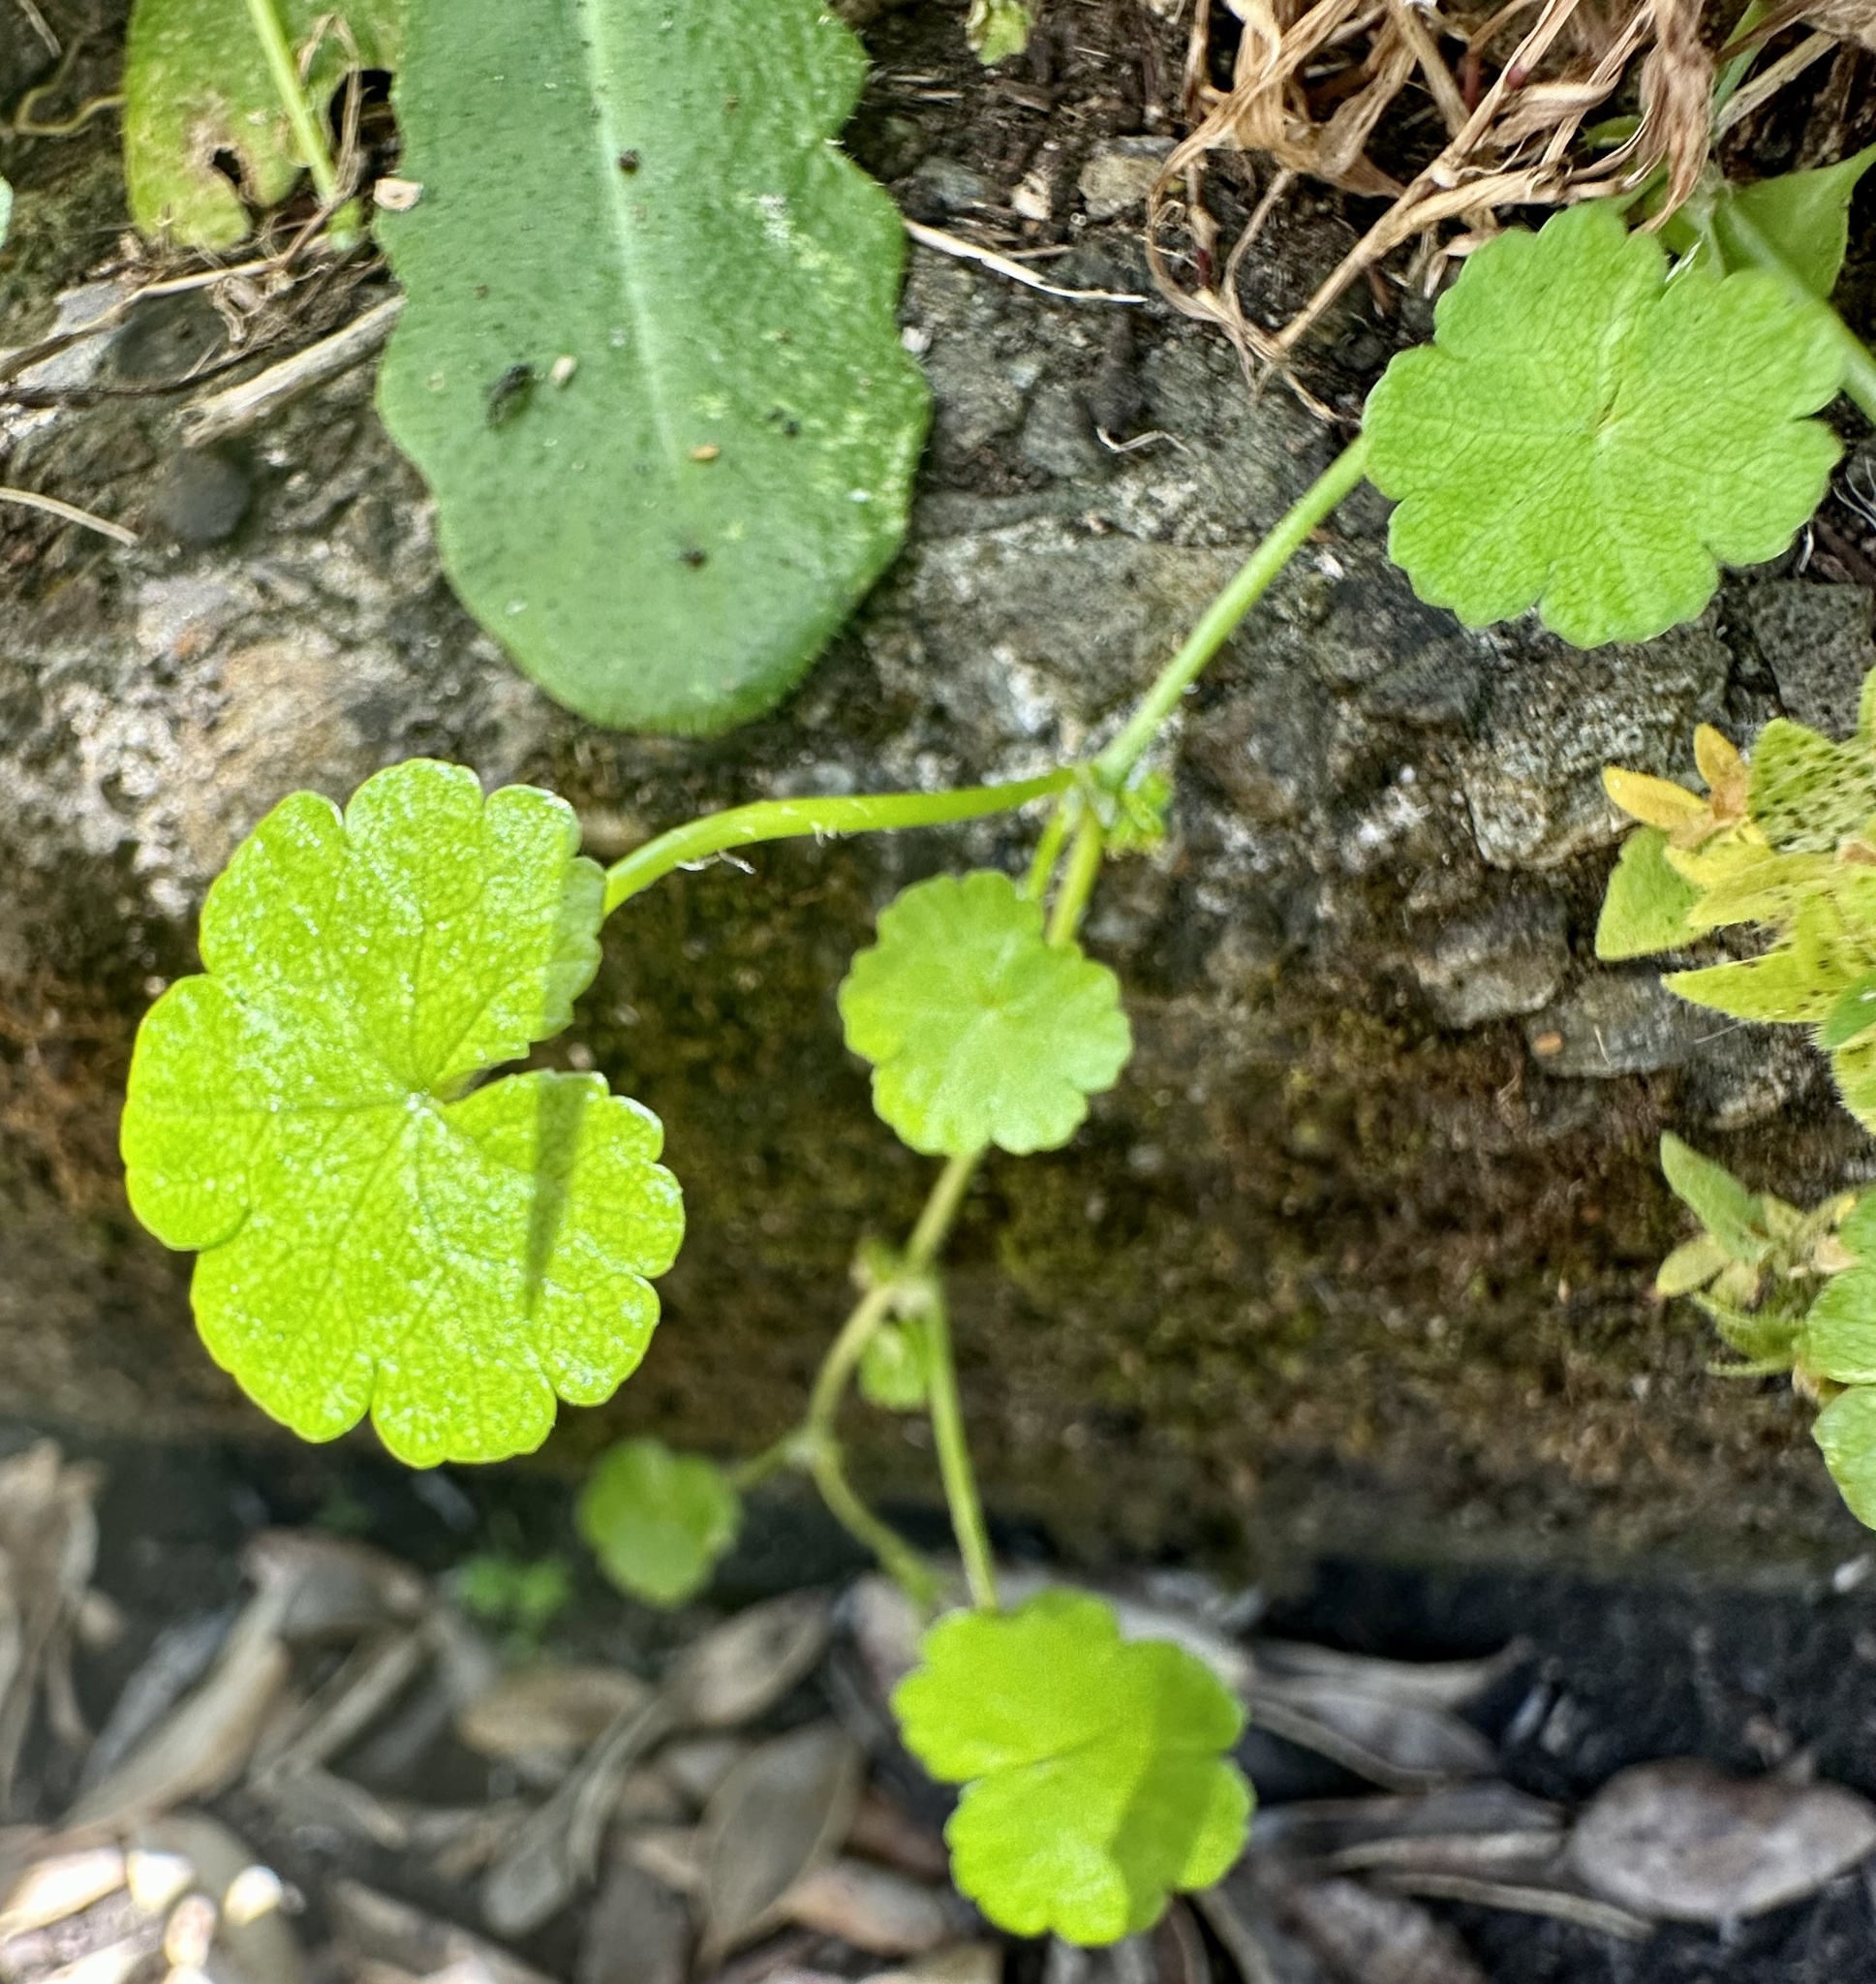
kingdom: Plantae
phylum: Tracheophyta
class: Magnoliopsida
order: Apiales
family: Araliaceae
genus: Hydrocotyle
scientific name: Hydrocotyle heteromeria
